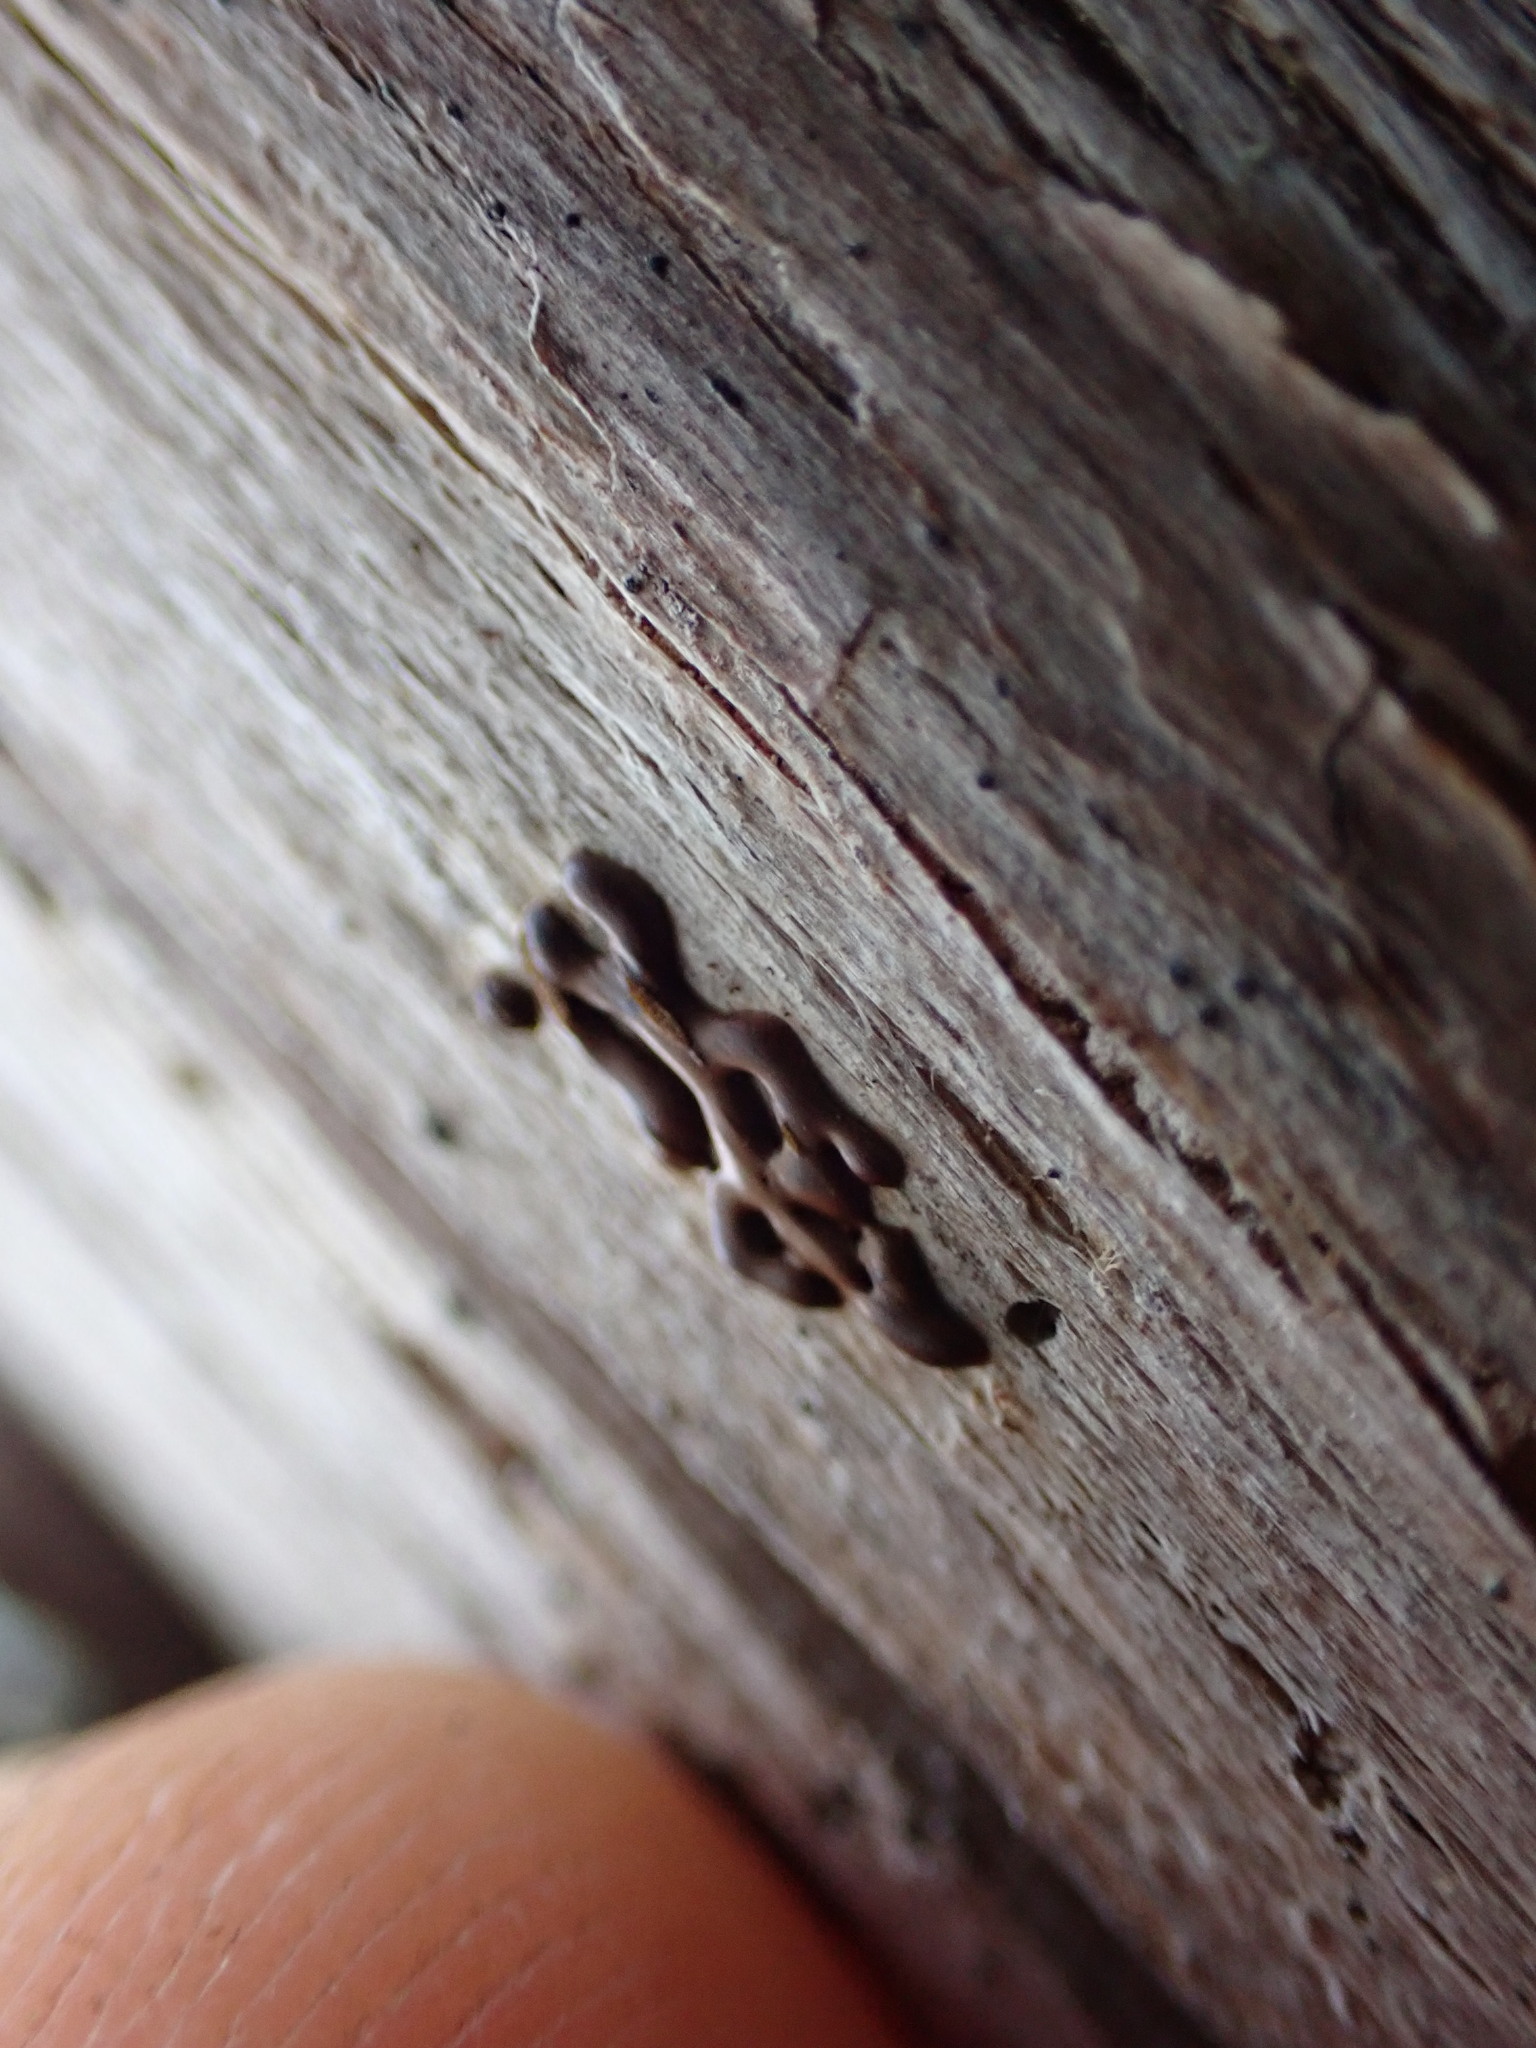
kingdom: Protozoa
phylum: Mycetozoa
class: Myxomycetes
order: Trichiales
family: Dianemataceae
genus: Dianema
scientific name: Dianema corticatum
